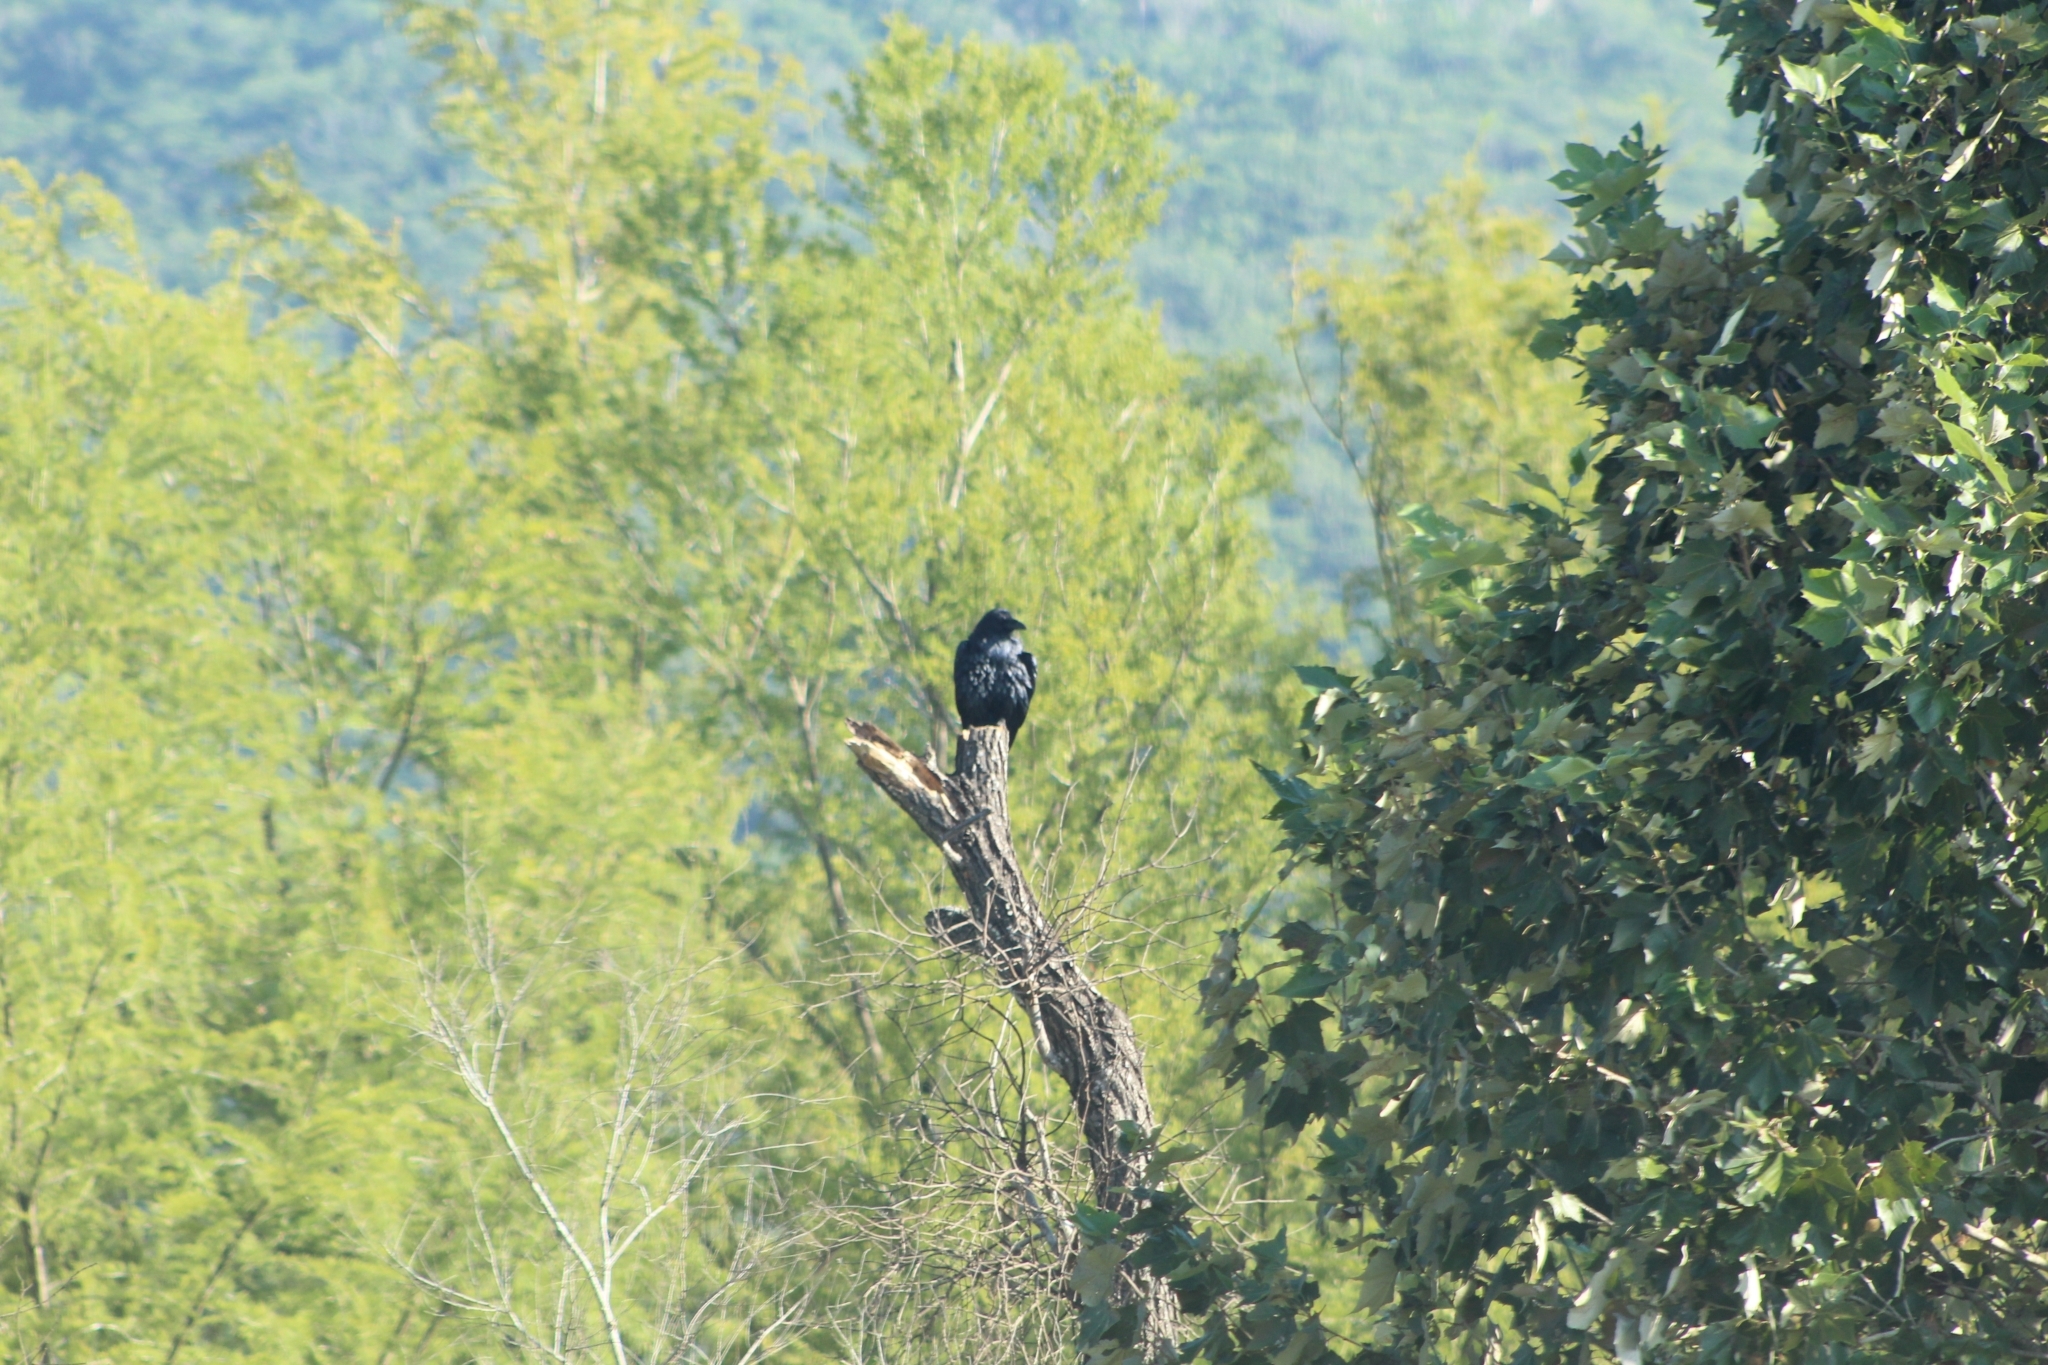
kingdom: Animalia
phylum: Chordata
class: Aves
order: Passeriformes
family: Corvidae
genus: Corvus
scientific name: Corvus corax
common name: Common raven
